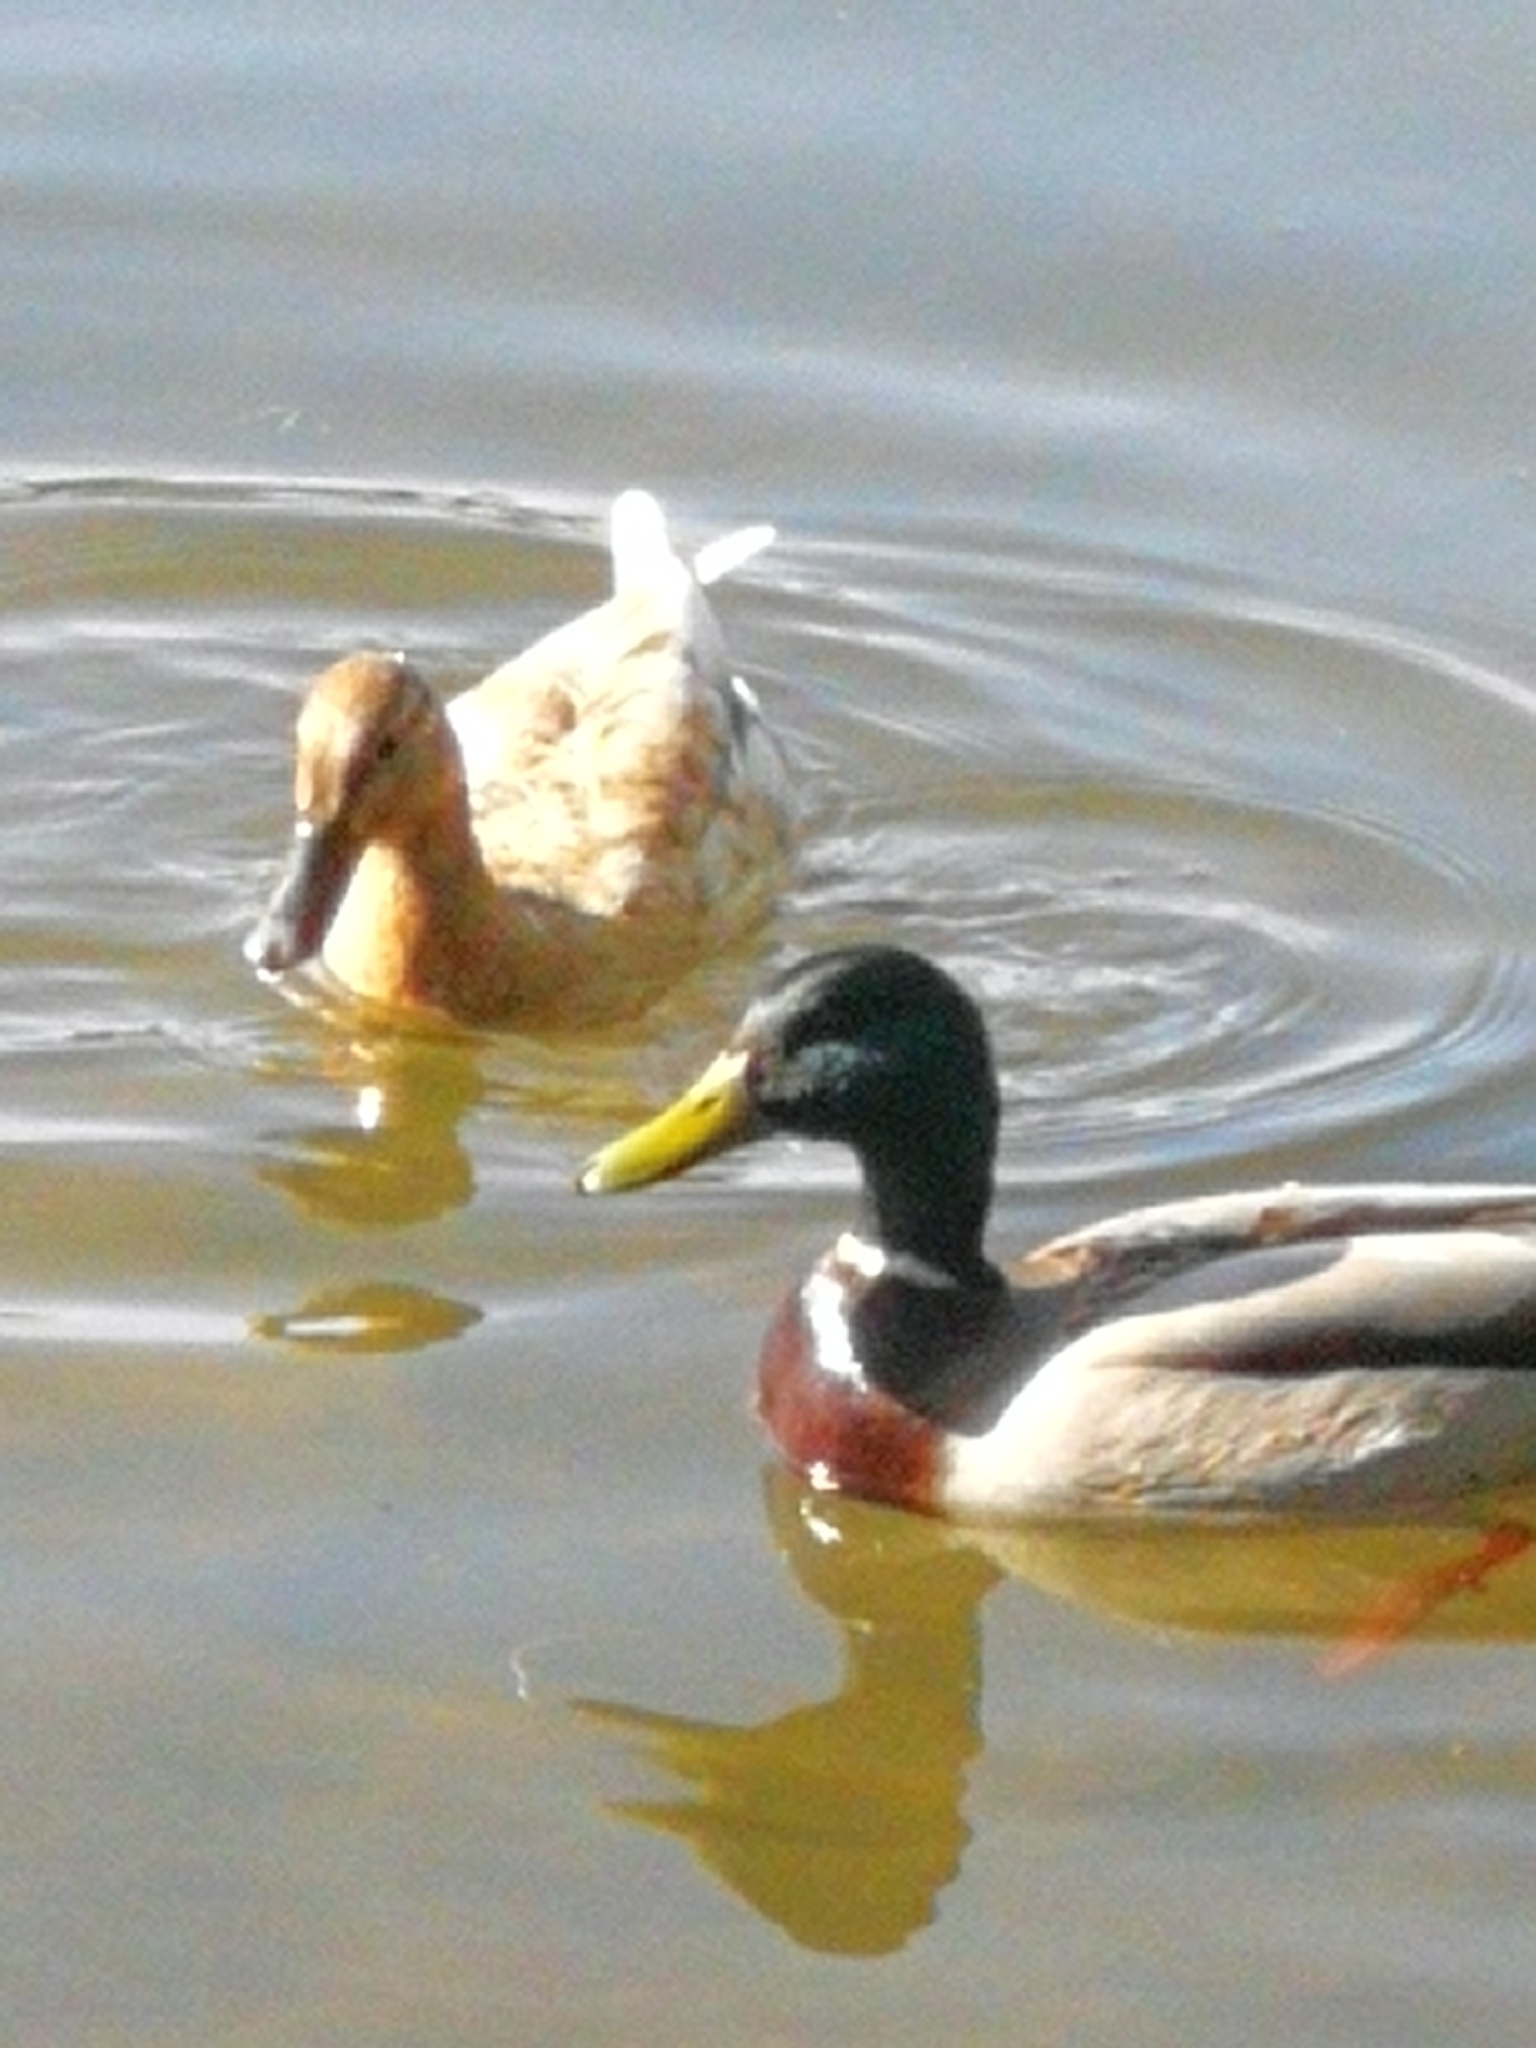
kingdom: Animalia
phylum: Chordata
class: Aves
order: Anseriformes
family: Anatidae
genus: Anas
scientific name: Anas platyrhynchos
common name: Mallard
